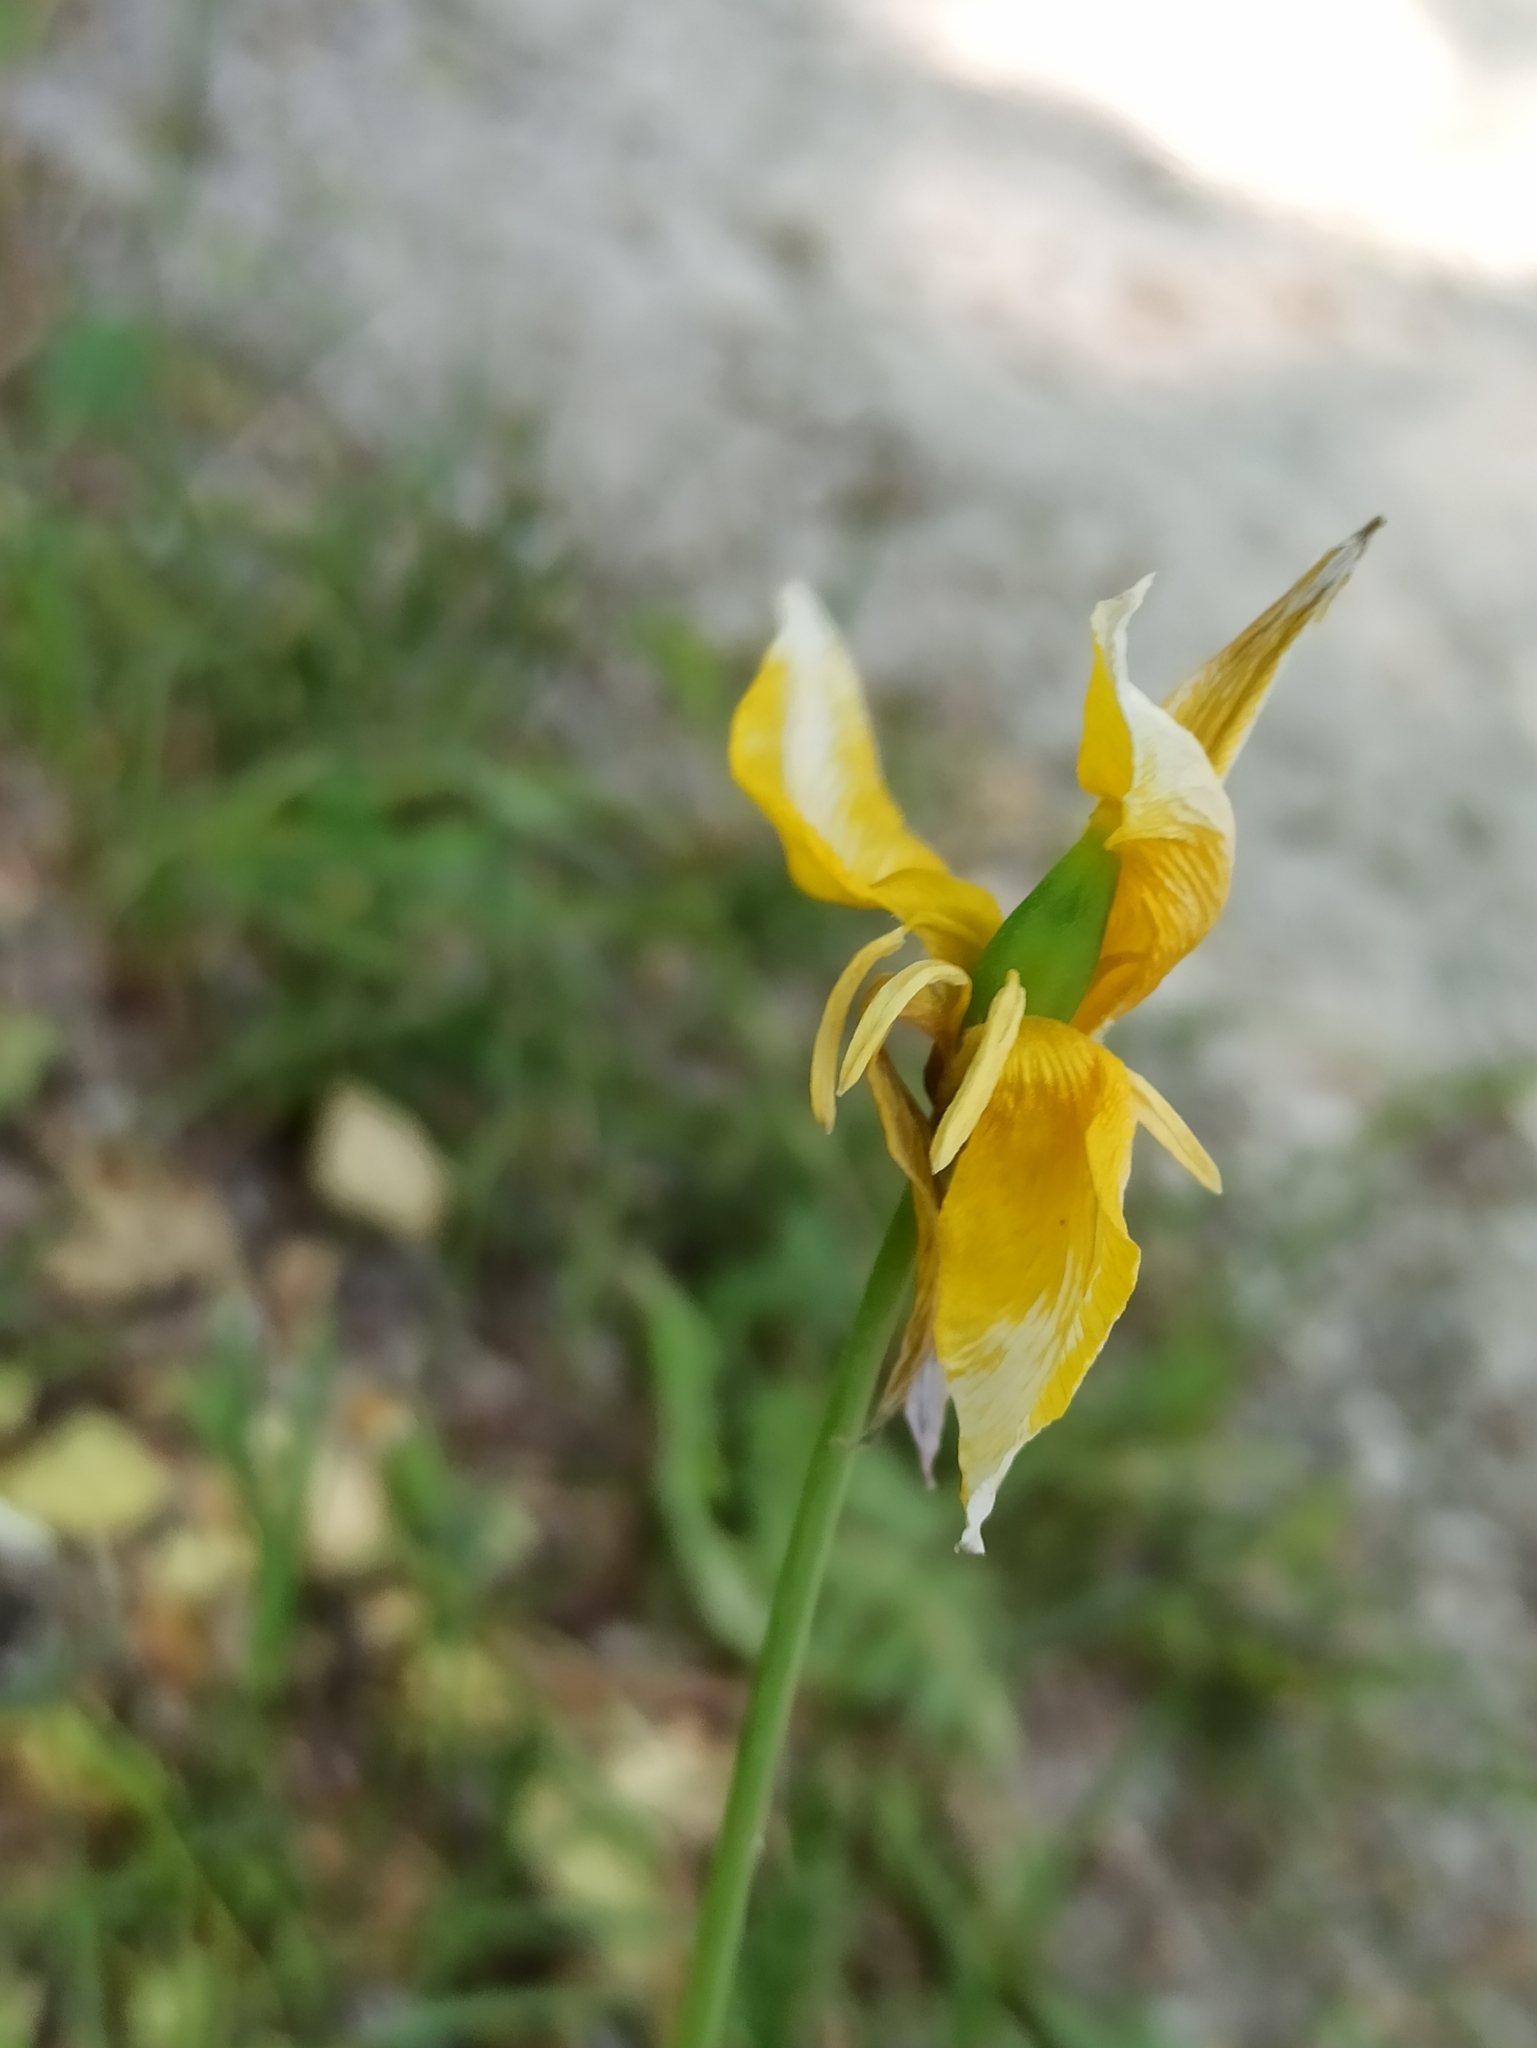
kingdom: Plantae
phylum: Tracheophyta
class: Liliopsida
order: Liliales
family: Liliaceae
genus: Tulipa
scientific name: Tulipa sylvestris
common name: Wild tulip
